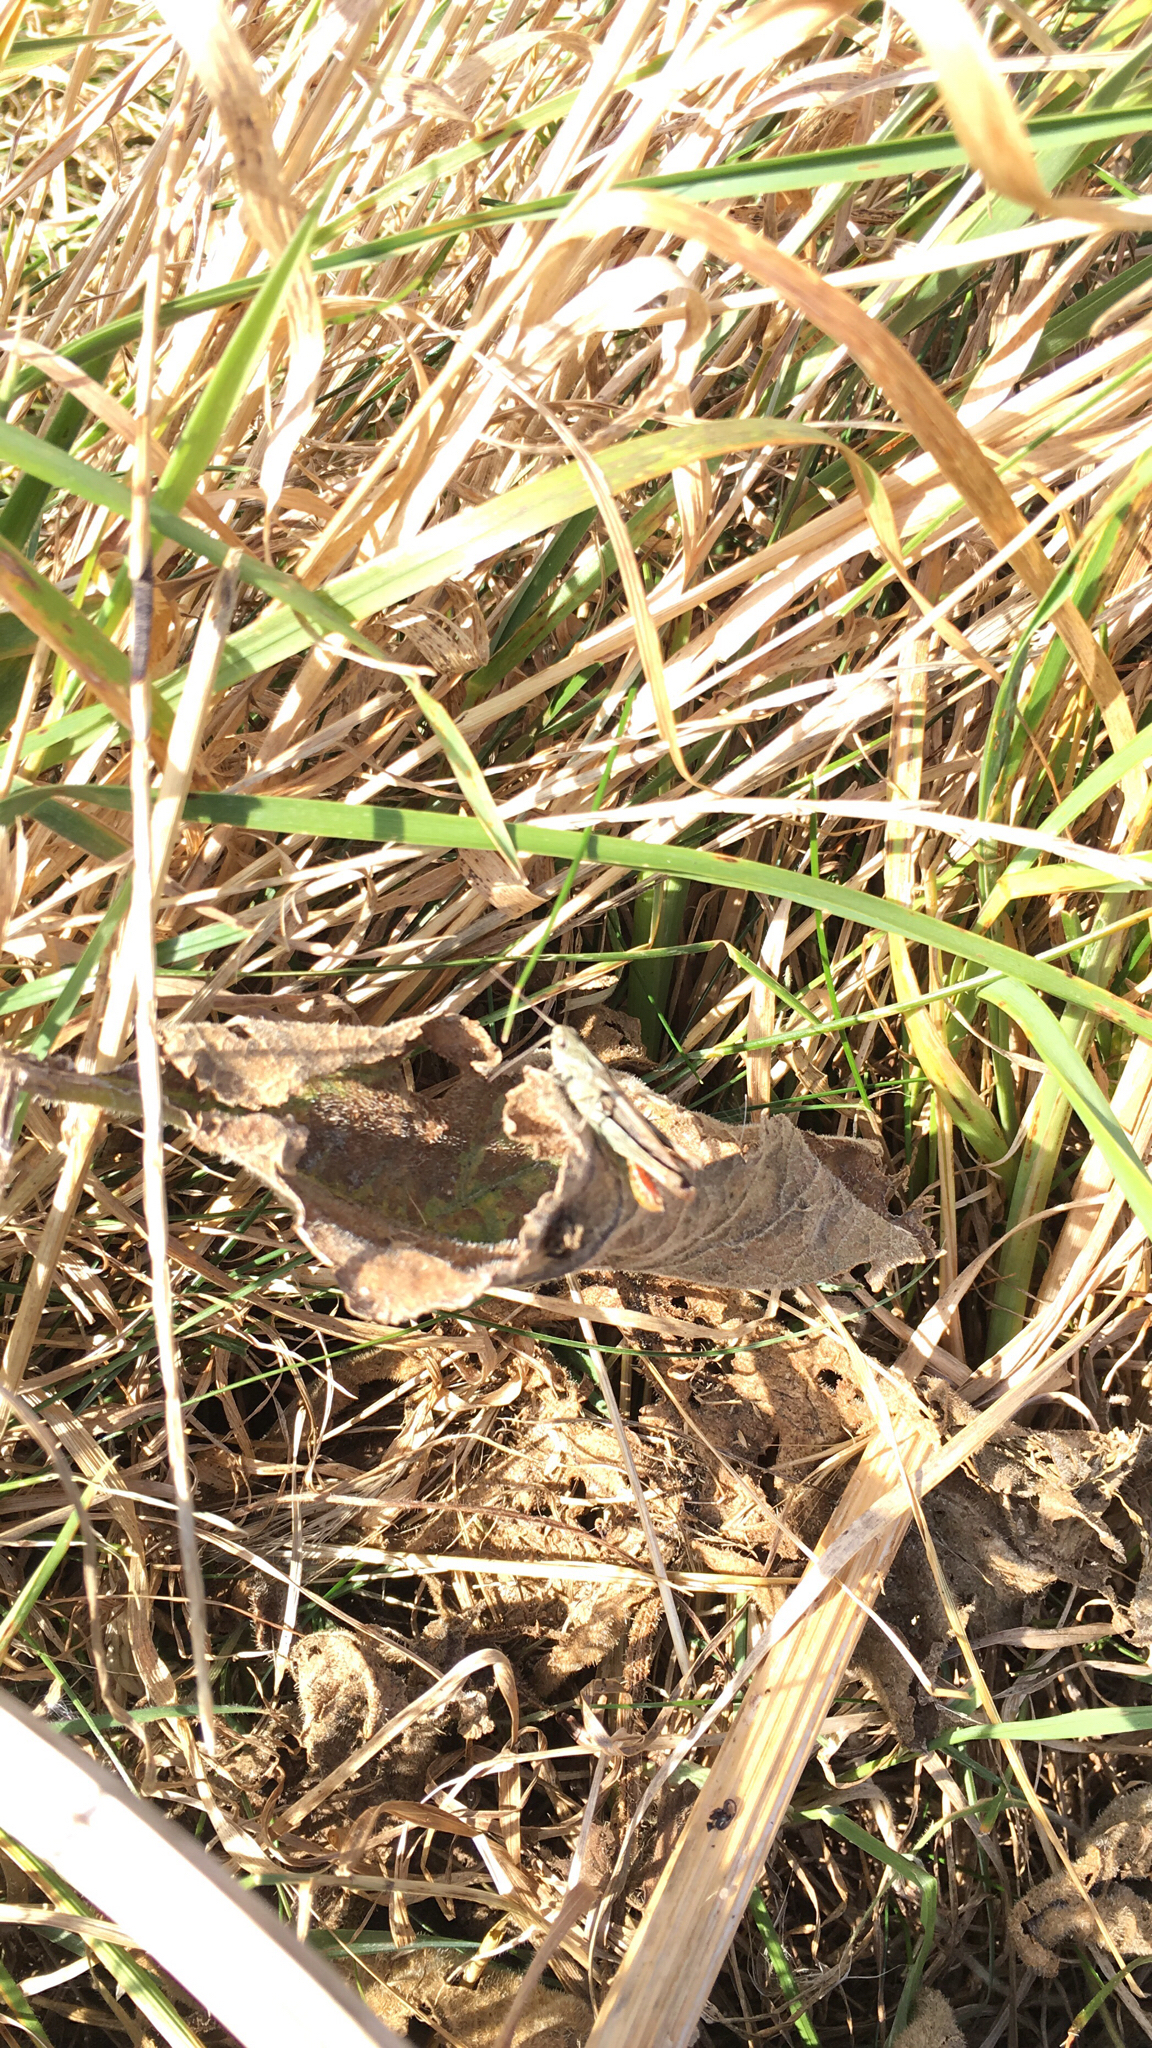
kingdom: Animalia
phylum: Arthropoda
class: Insecta
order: Orthoptera
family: Acrididae
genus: Chorthippus
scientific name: Chorthippus brunneus
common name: Field grasshopper
